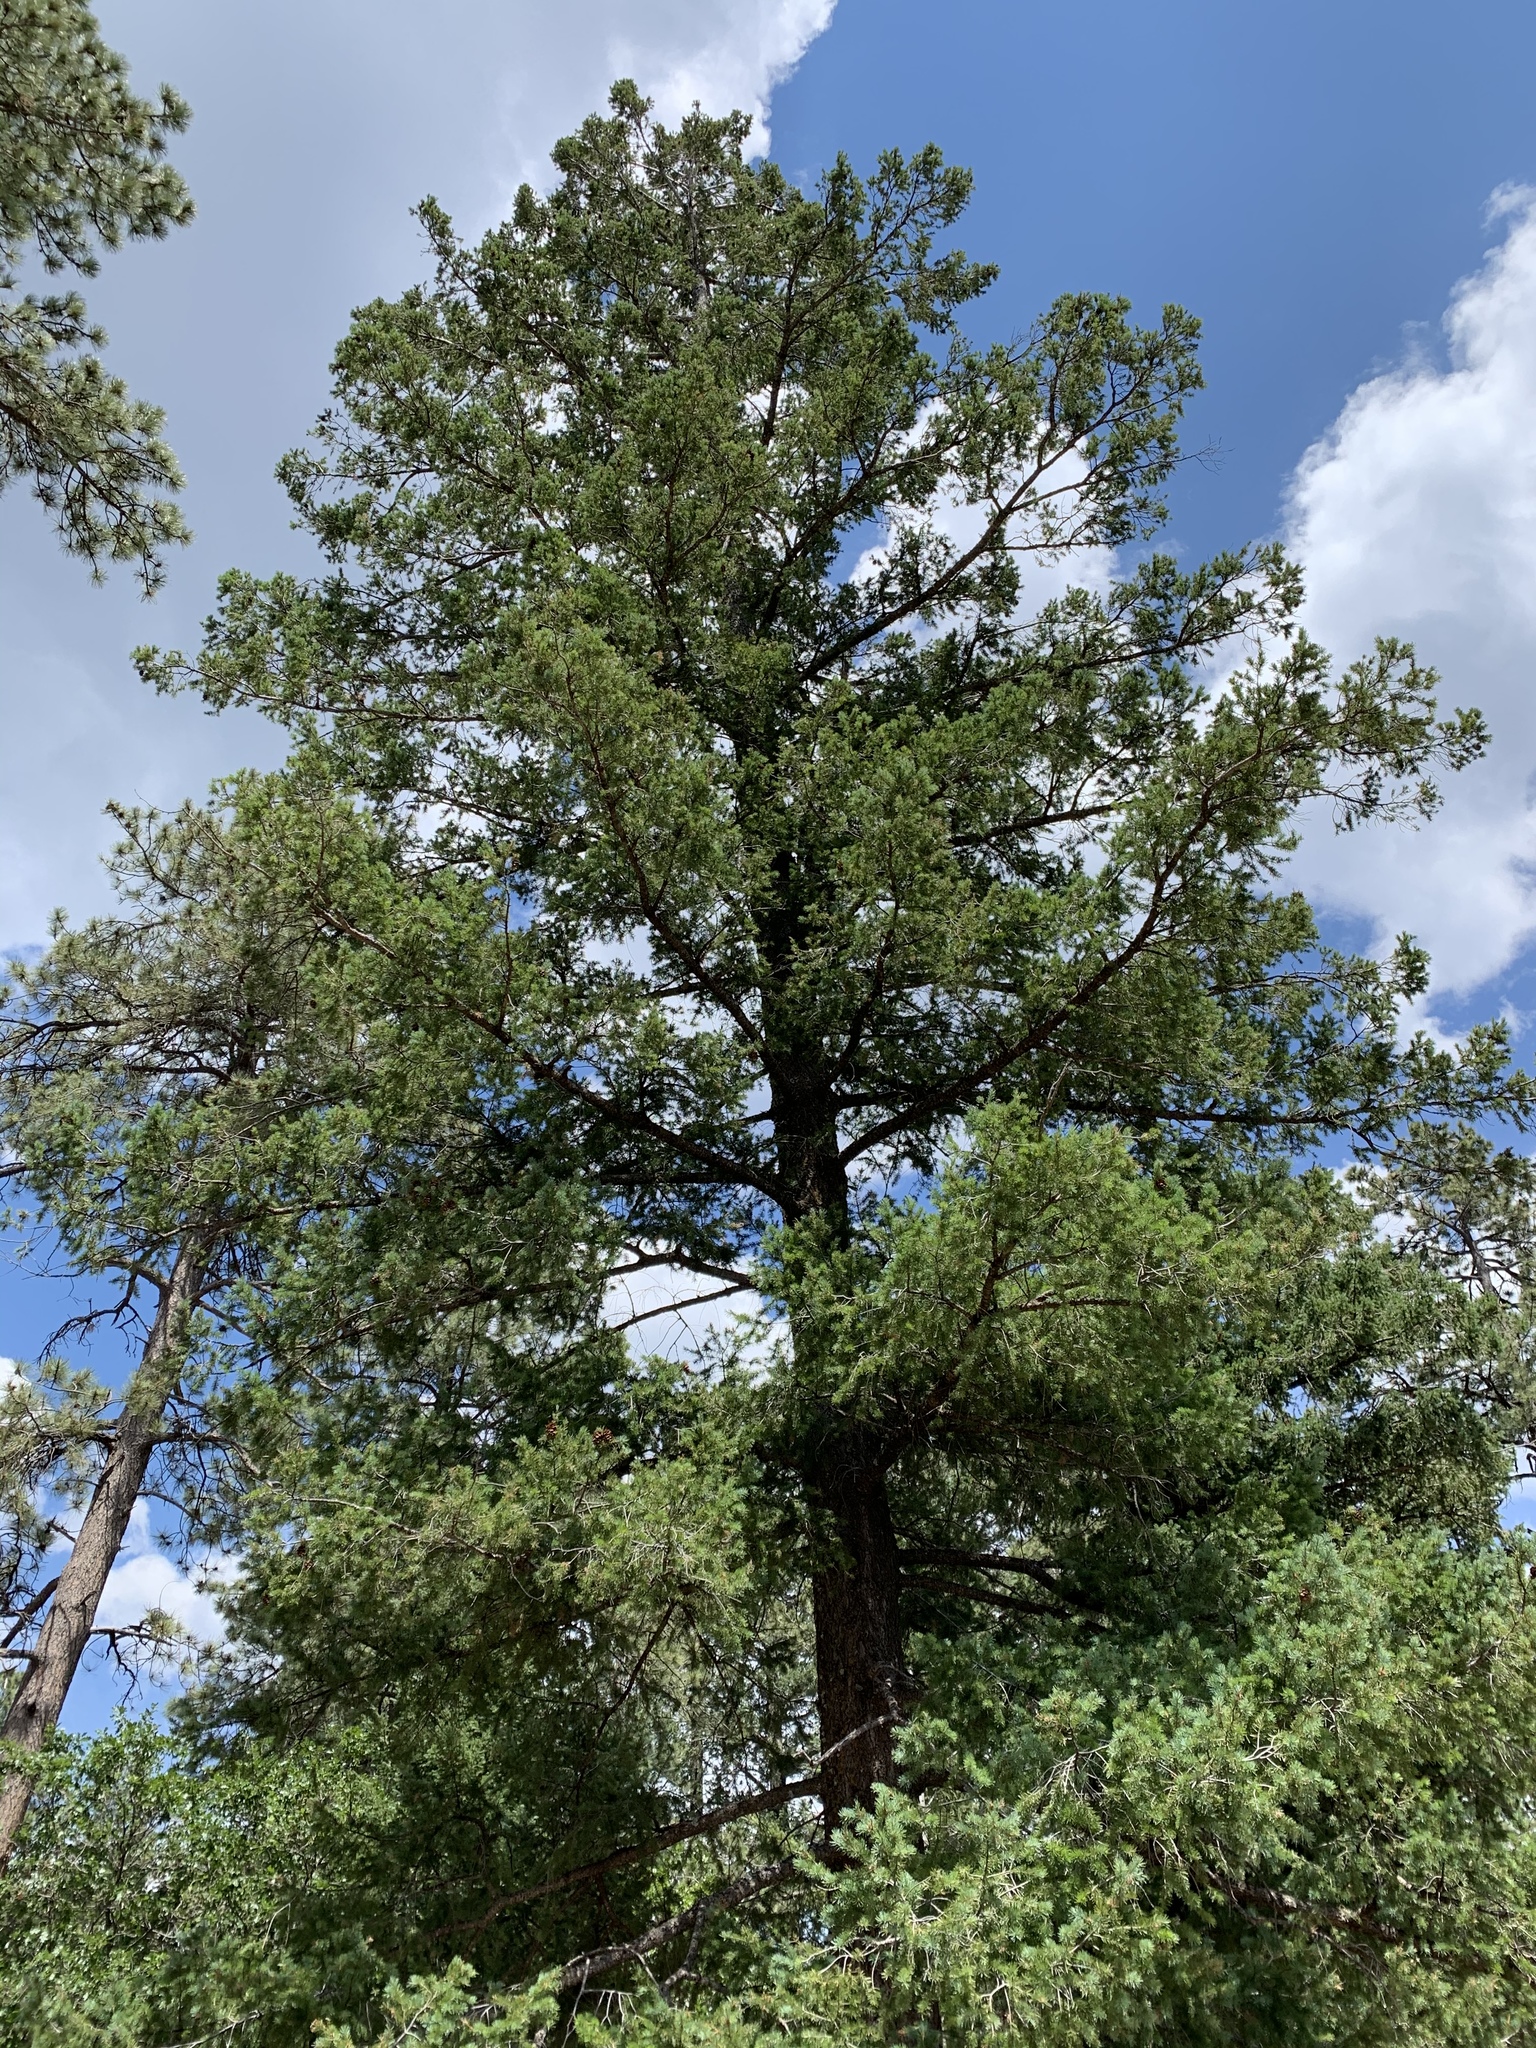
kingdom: Plantae
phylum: Tracheophyta
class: Pinopsida
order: Pinales
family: Pinaceae
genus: Pseudotsuga
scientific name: Pseudotsuga menziesii
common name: Douglas fir
